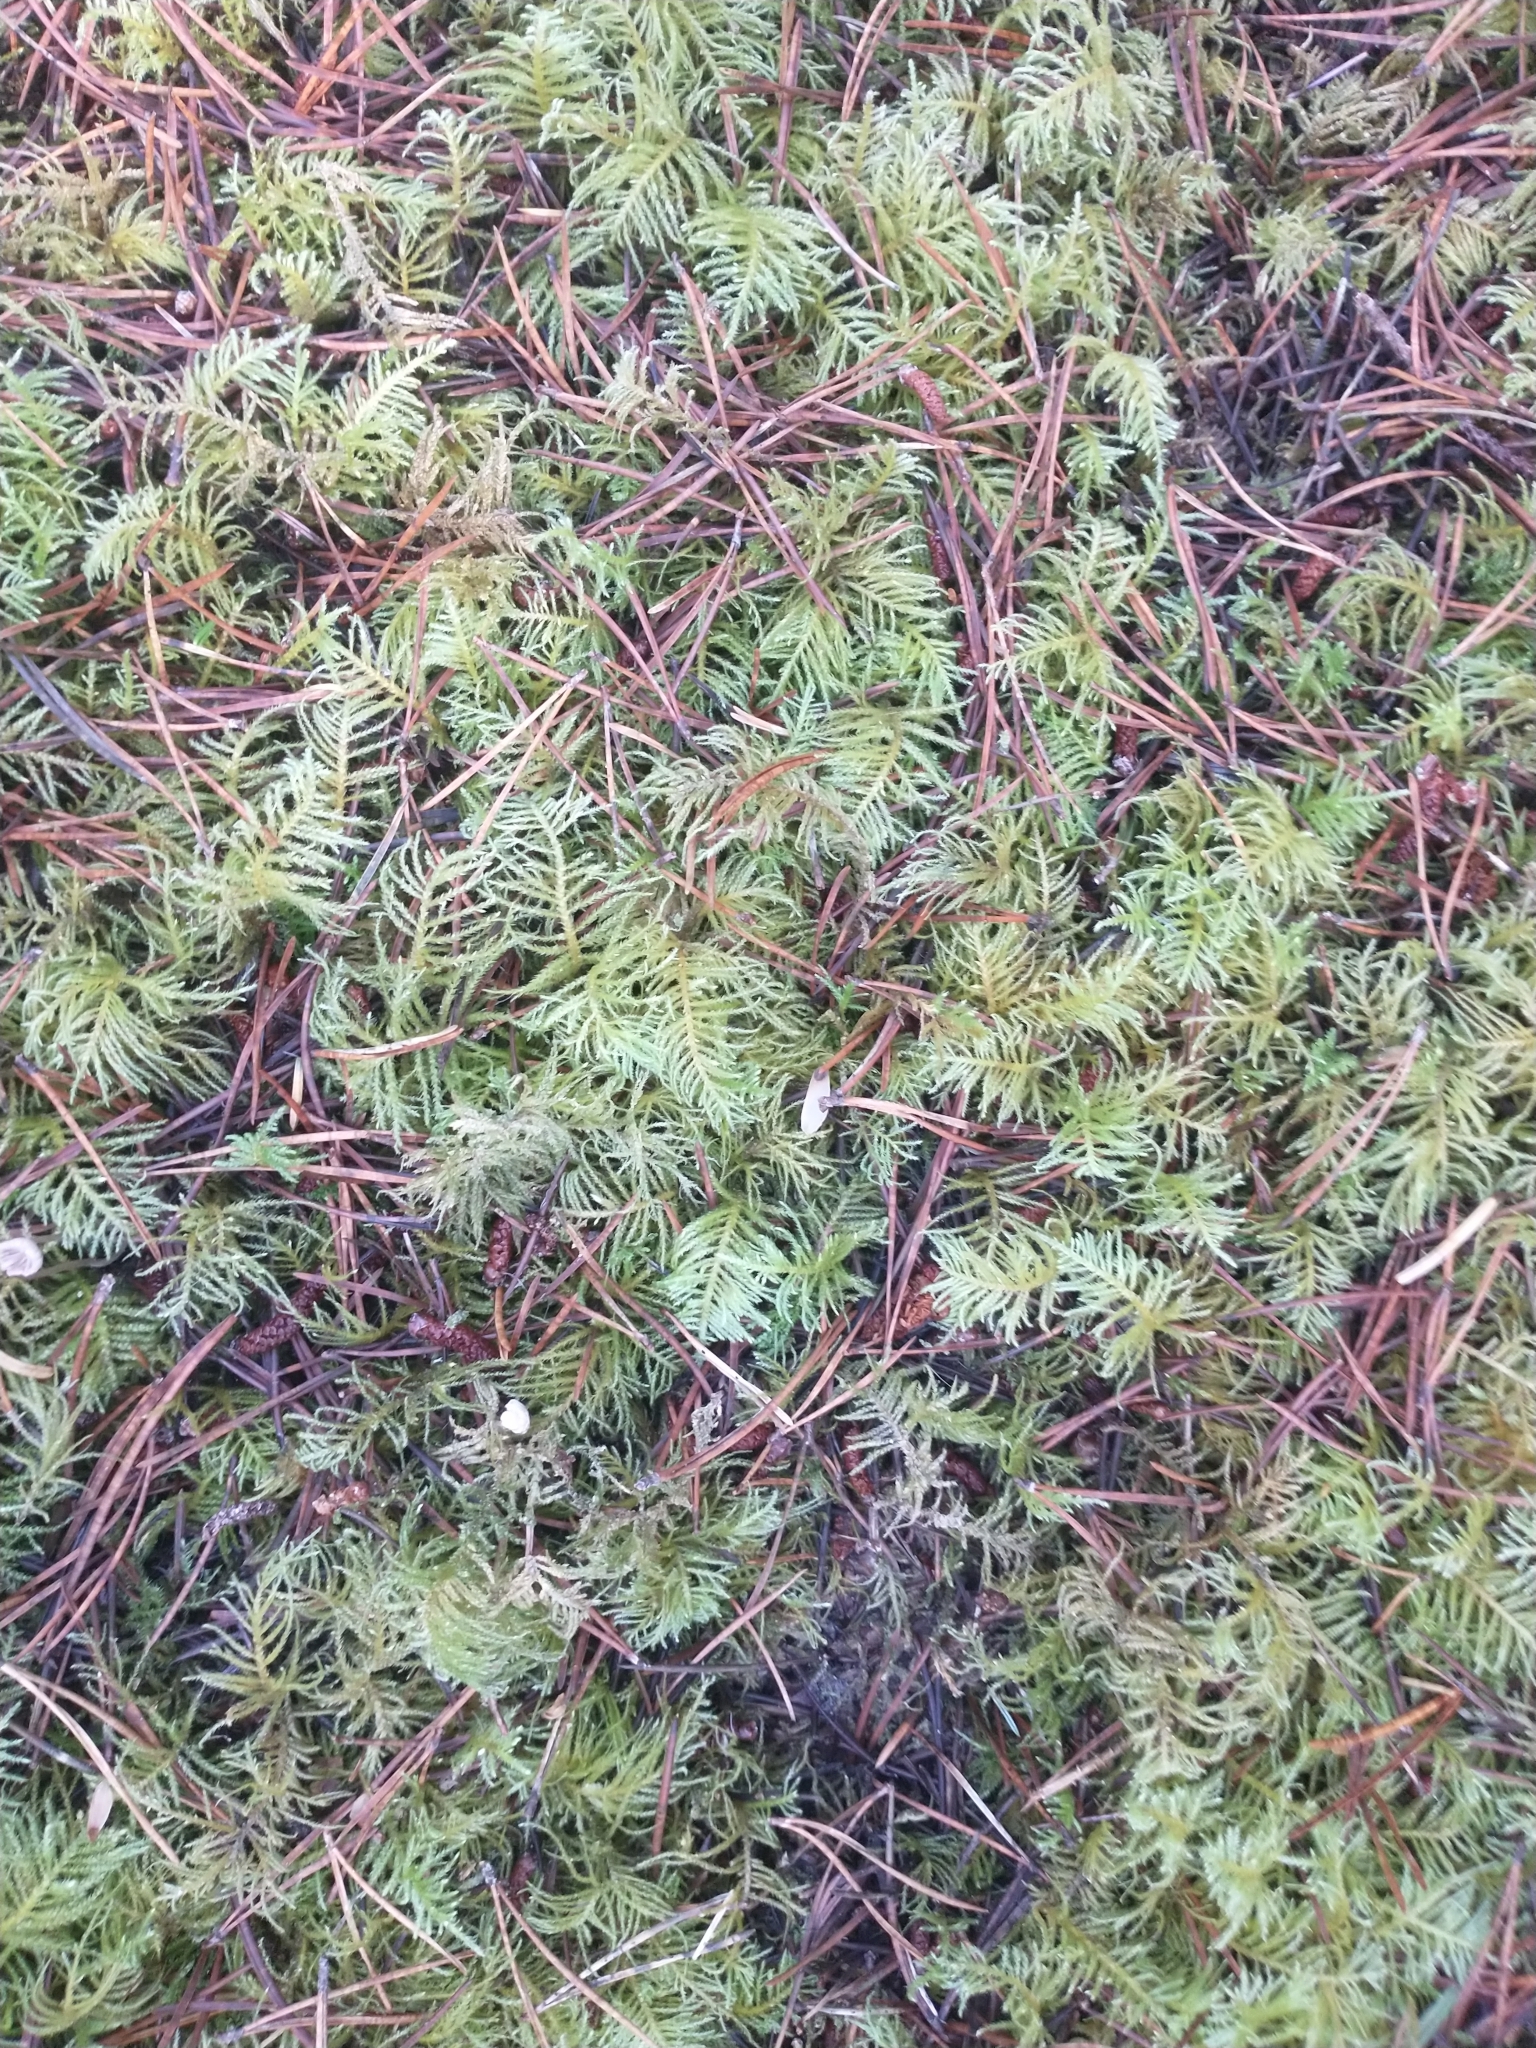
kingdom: Plantae
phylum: Bryophyta
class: Bryopsida
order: Hypnales
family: Brachytheciaceae
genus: Kindbergia
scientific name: Kindbergia oregana
